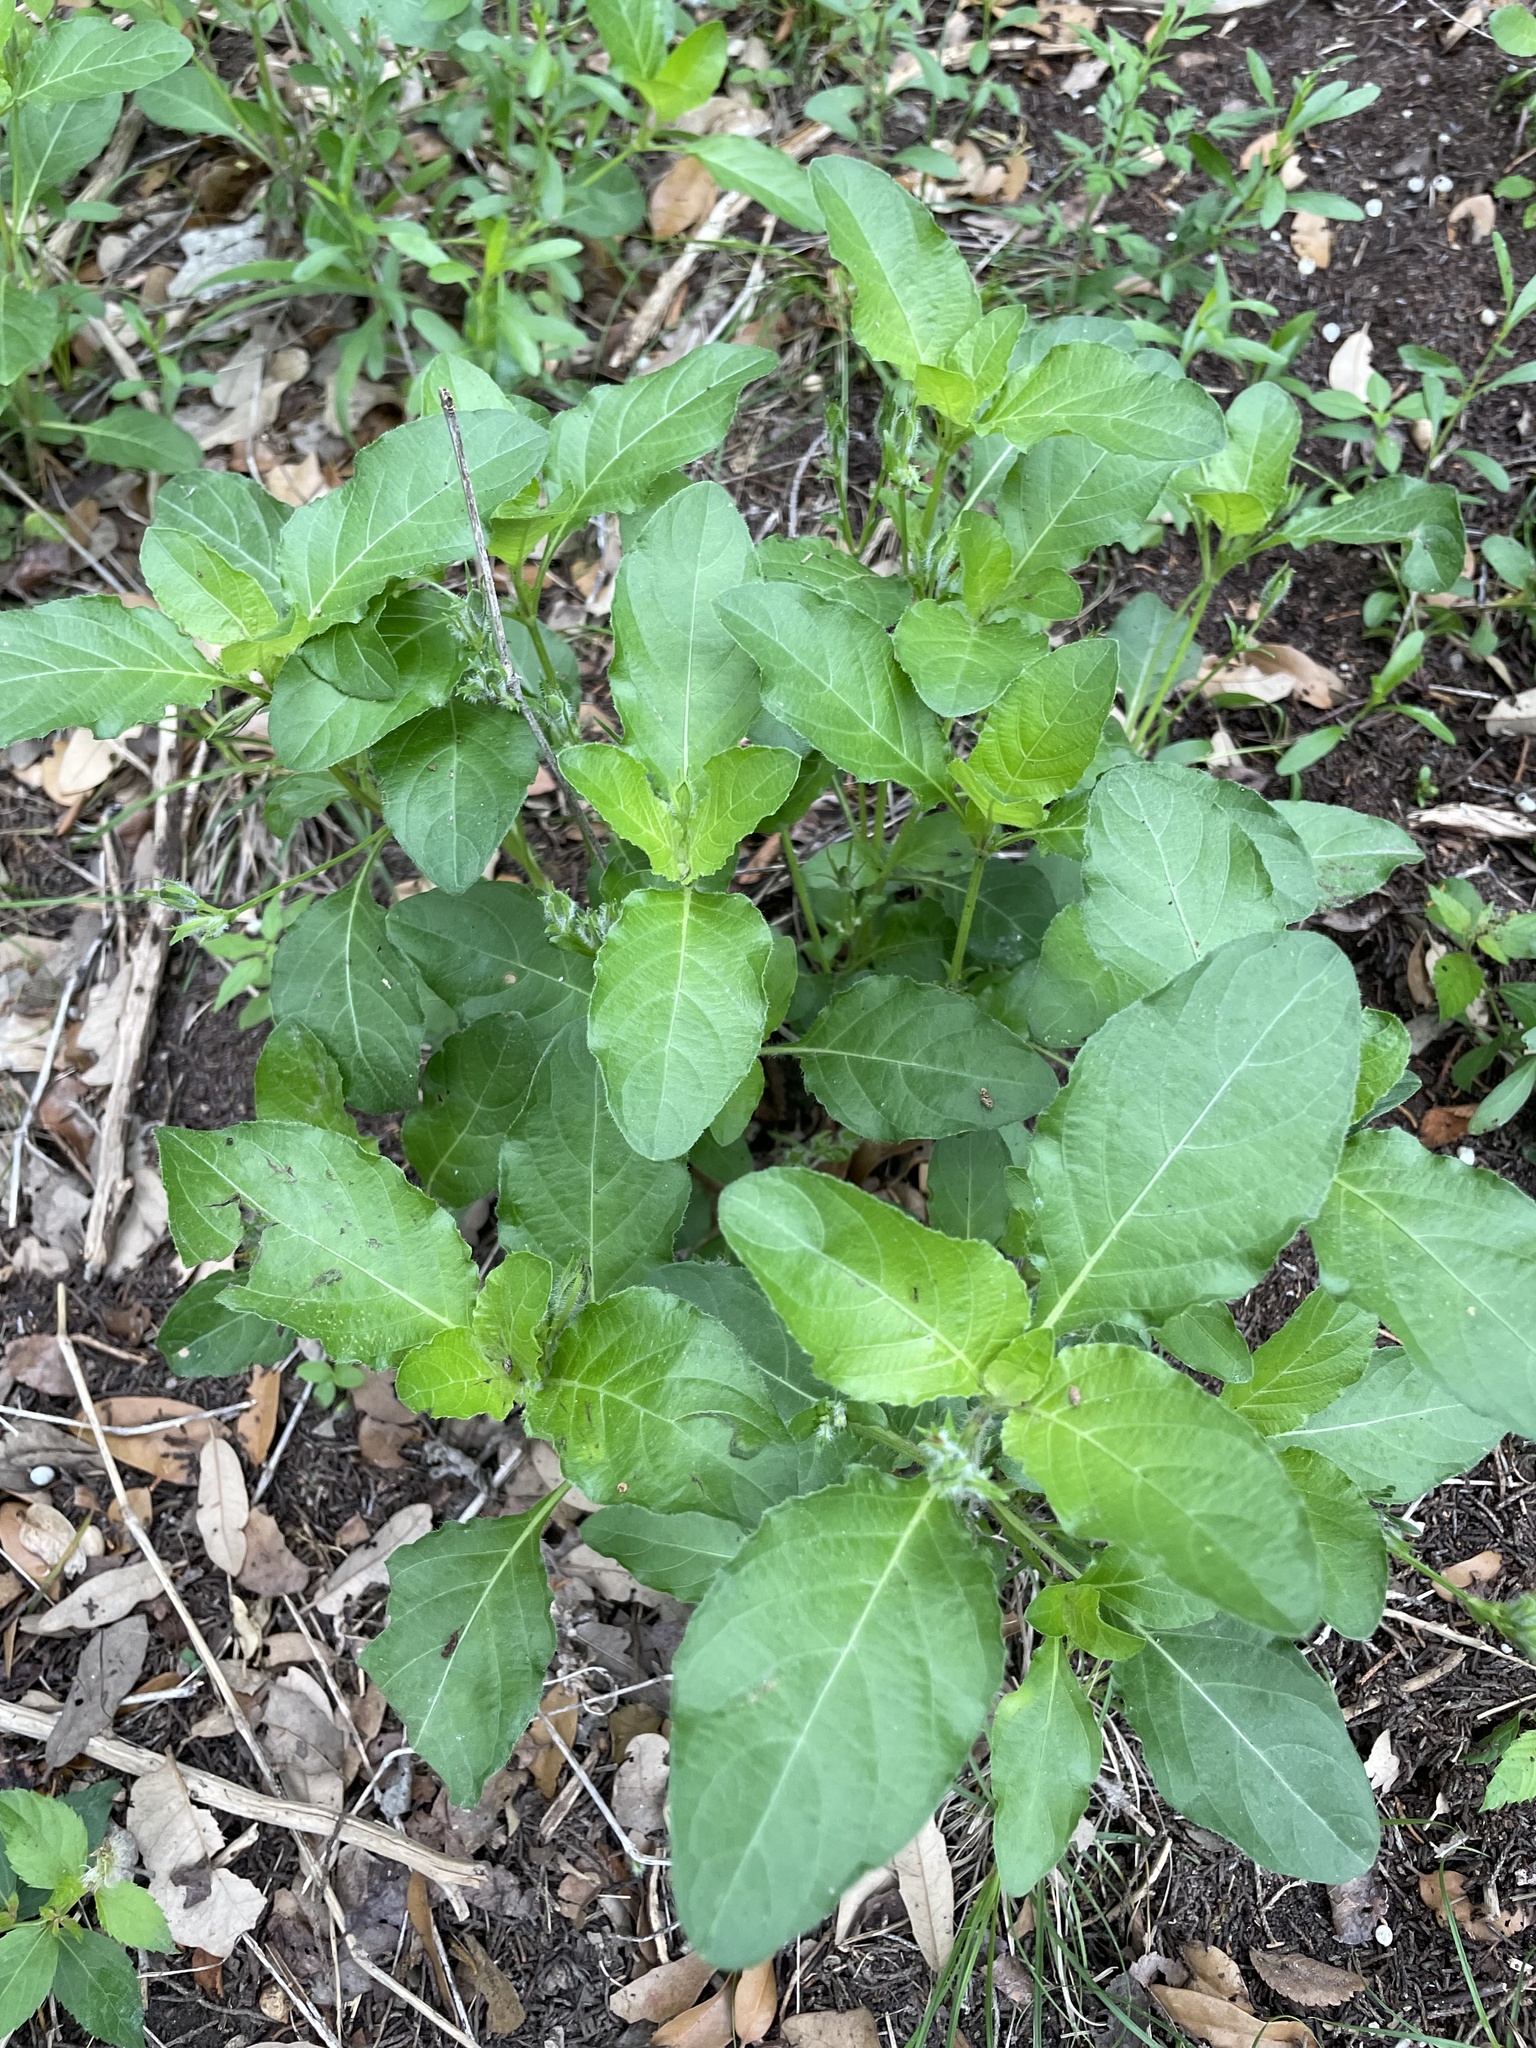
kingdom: Plantae
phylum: Tracheophyta
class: Magnoliopsida
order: Lamiales
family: Acanthaceae
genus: Ruellia
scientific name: Ruellia ciliatiflora
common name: Hairyflower wild petunia
